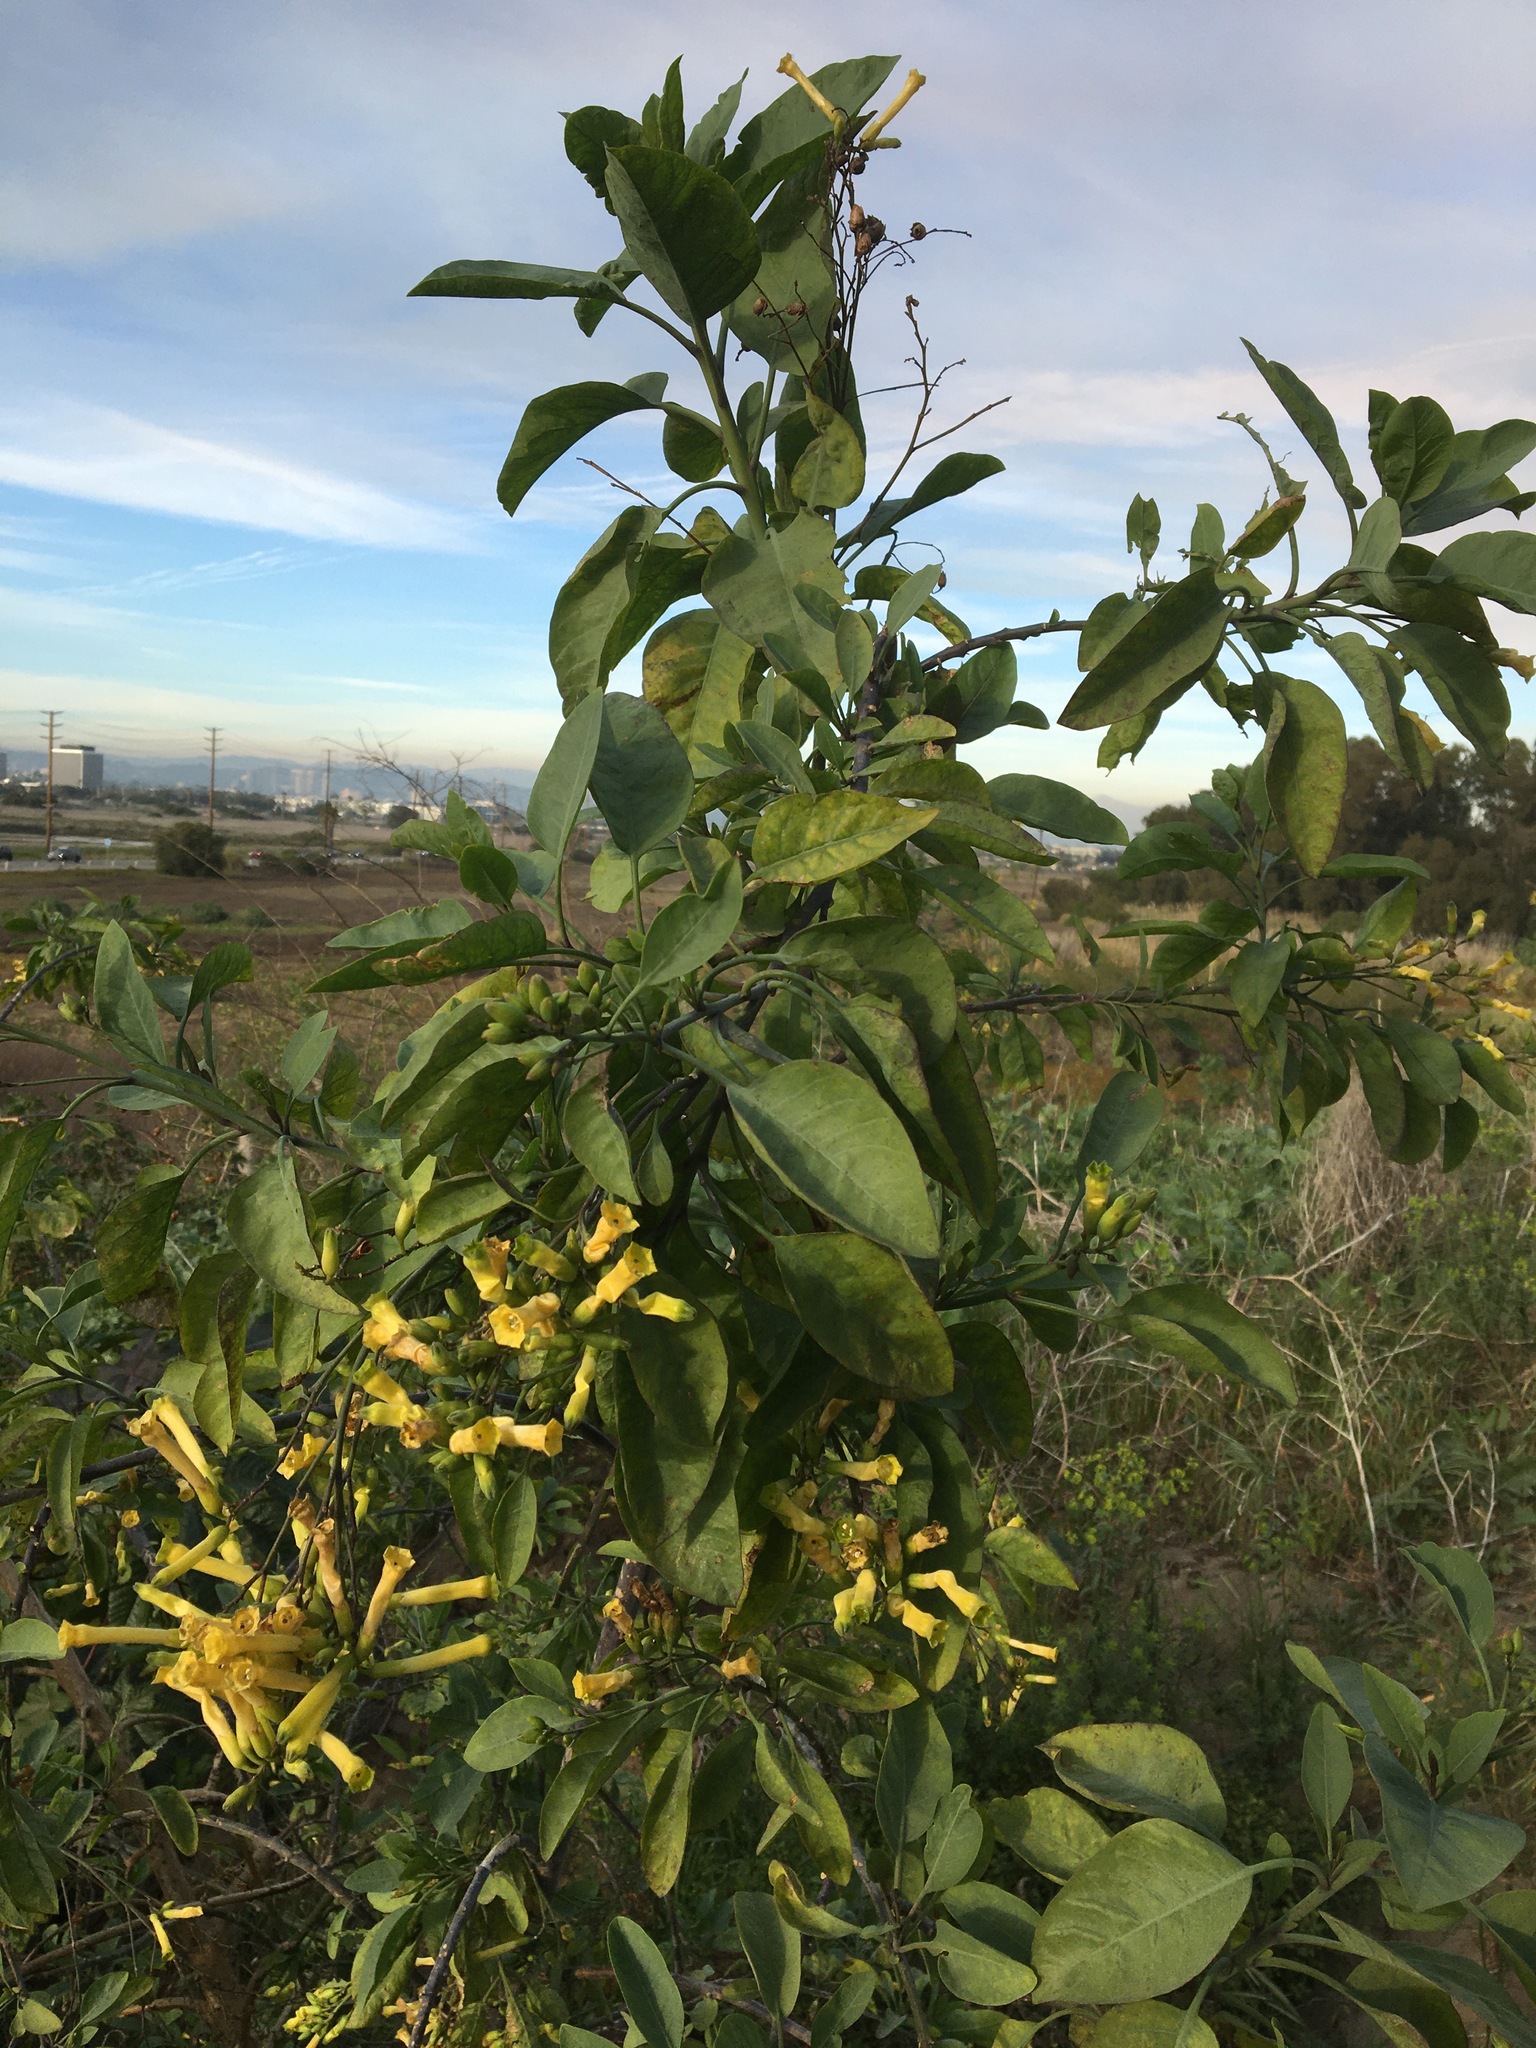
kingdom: Plantae
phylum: Tracheophyta
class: Magnoliopsida
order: Solanales
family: Solanaceae
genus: Nicotiana
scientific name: Nicotiana glauca
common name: Tree tobacco
